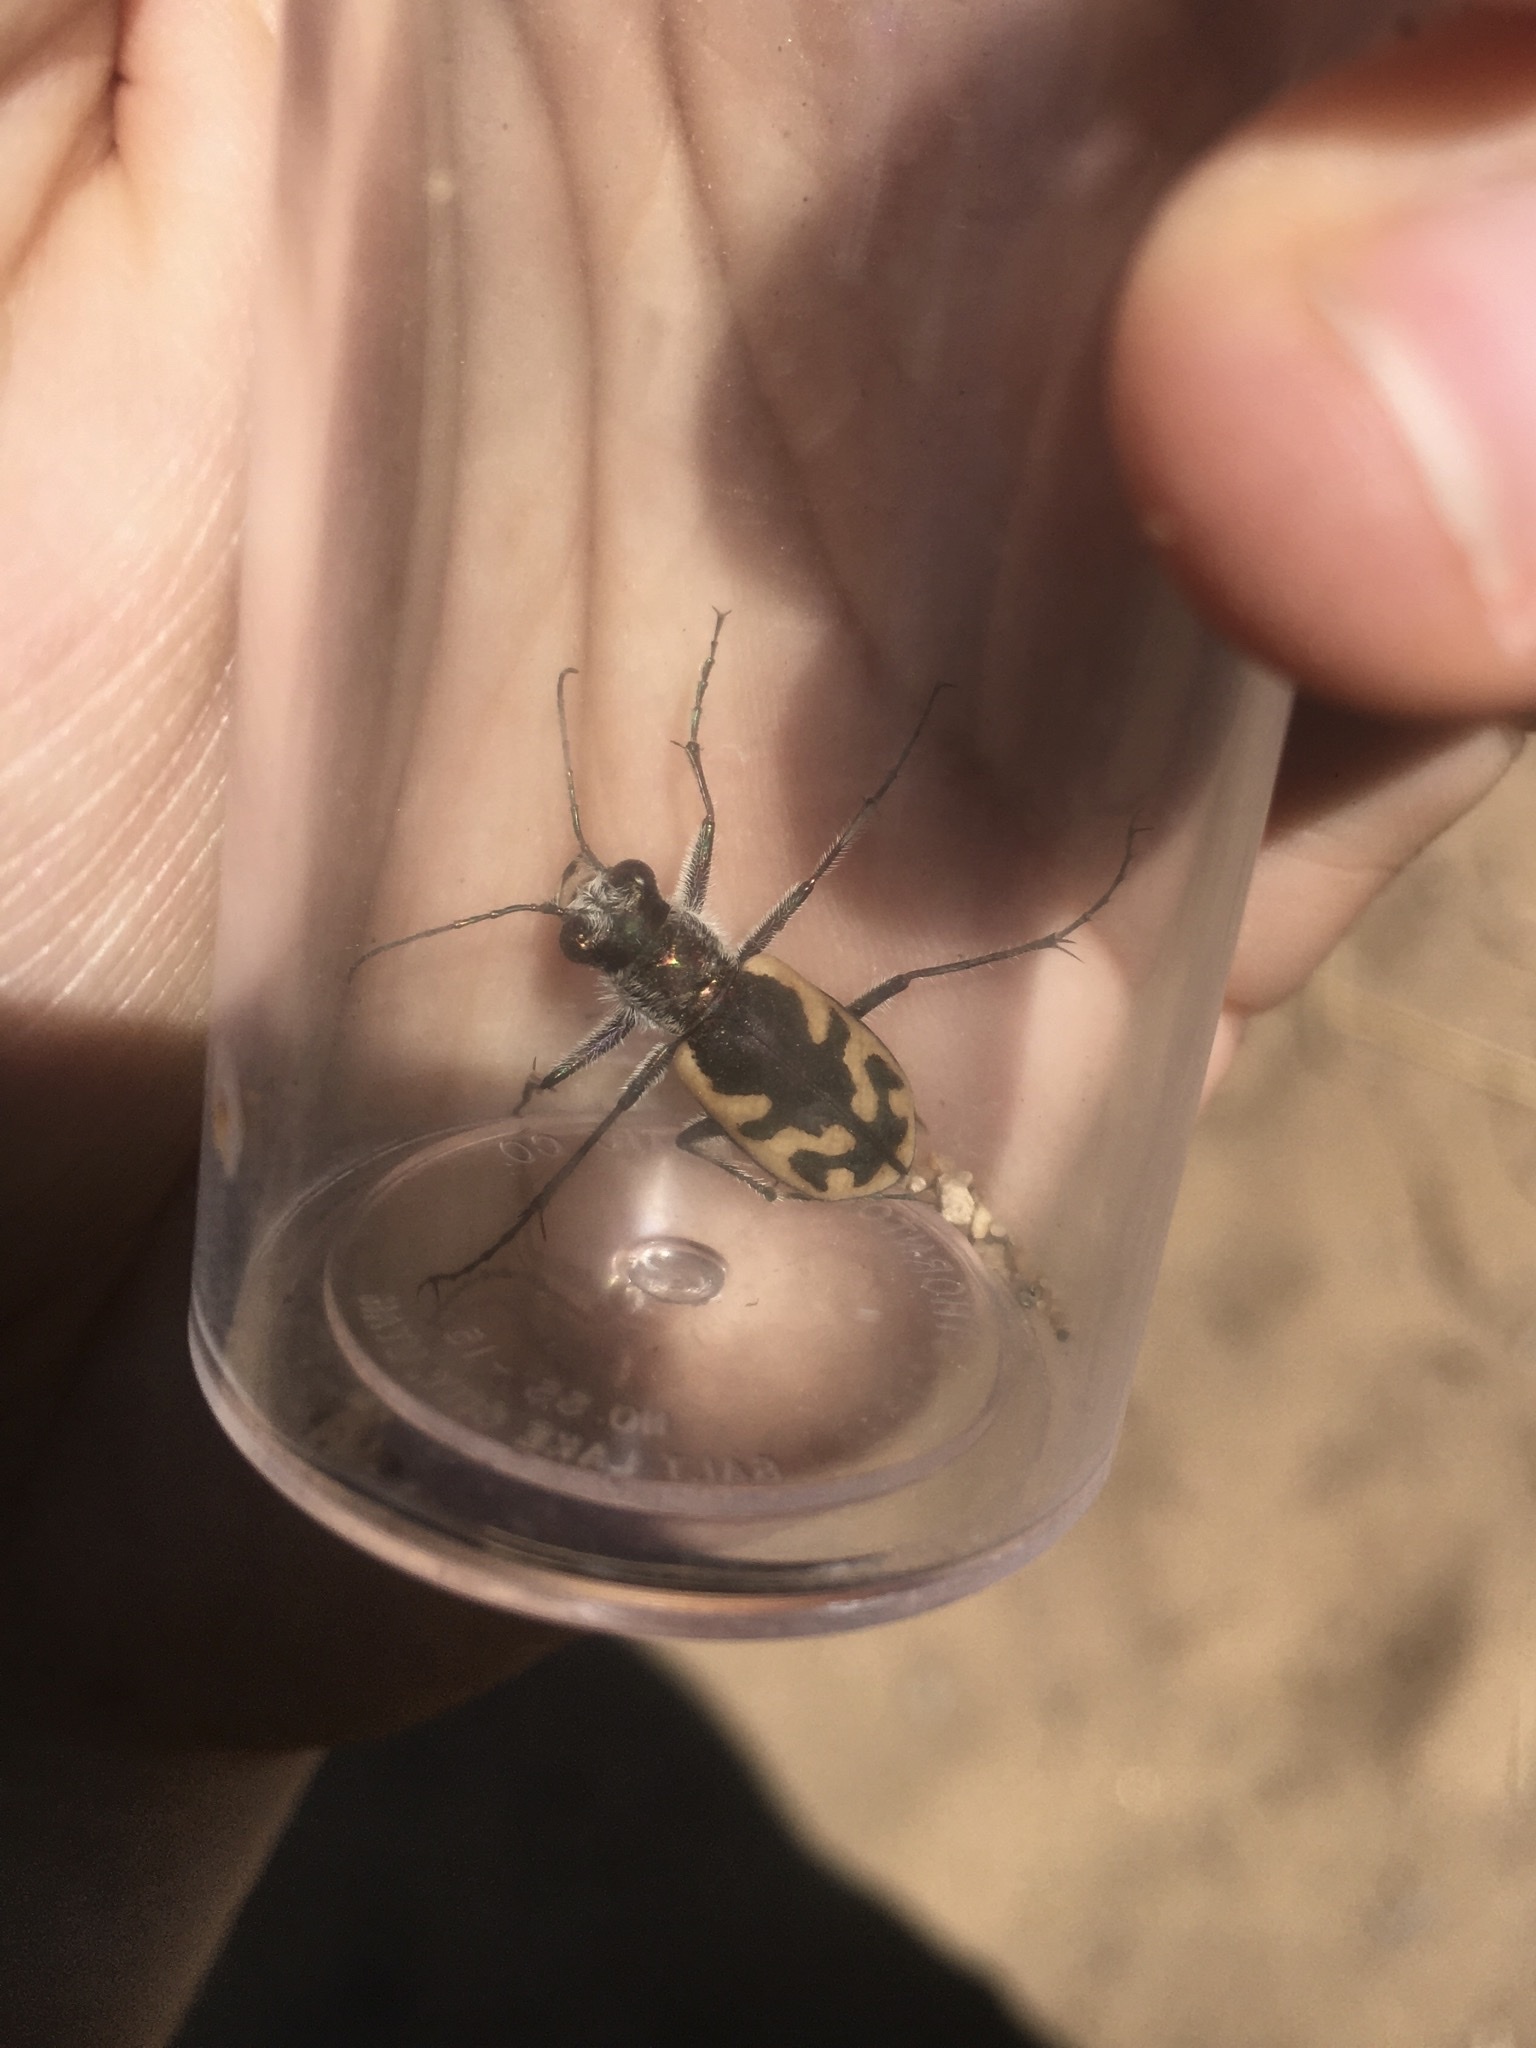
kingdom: Animalia
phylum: Arthropoda
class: Insecta
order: Coleoptera
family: Carabidae
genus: Cicindela
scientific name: Cicindela formosa
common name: Big sand tiger beetle
